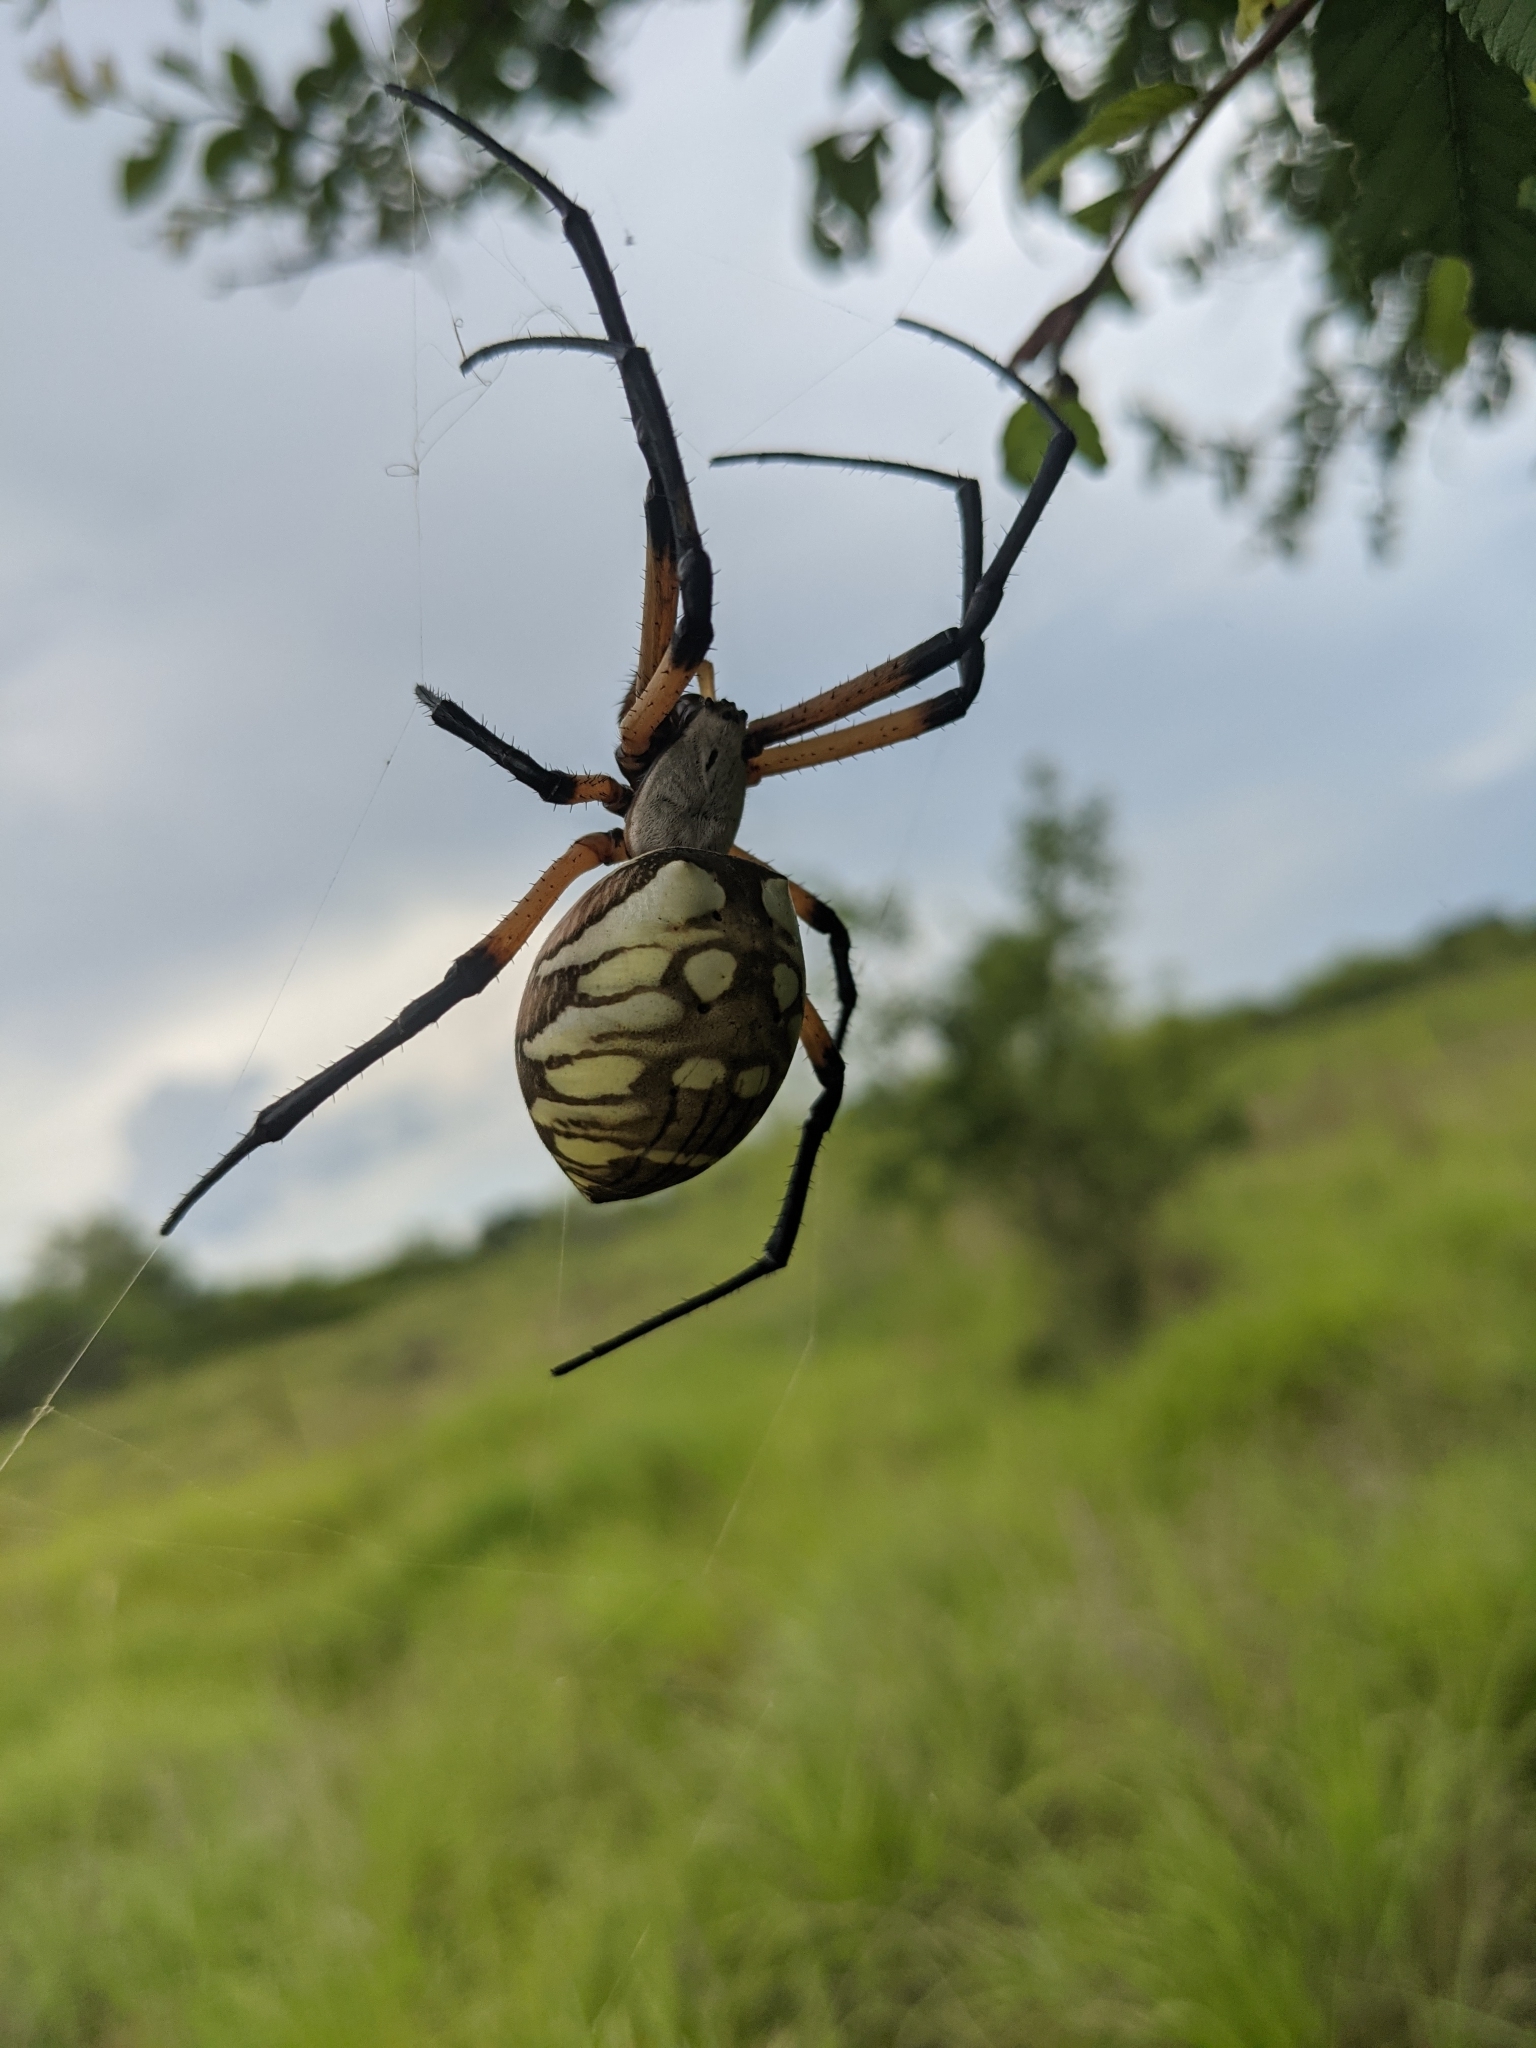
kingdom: Animalia
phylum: Arthropoda
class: Arachnida
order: Araneae
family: Araneidae
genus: Argiope
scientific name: Argiope aurantia
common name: Orb weavers
